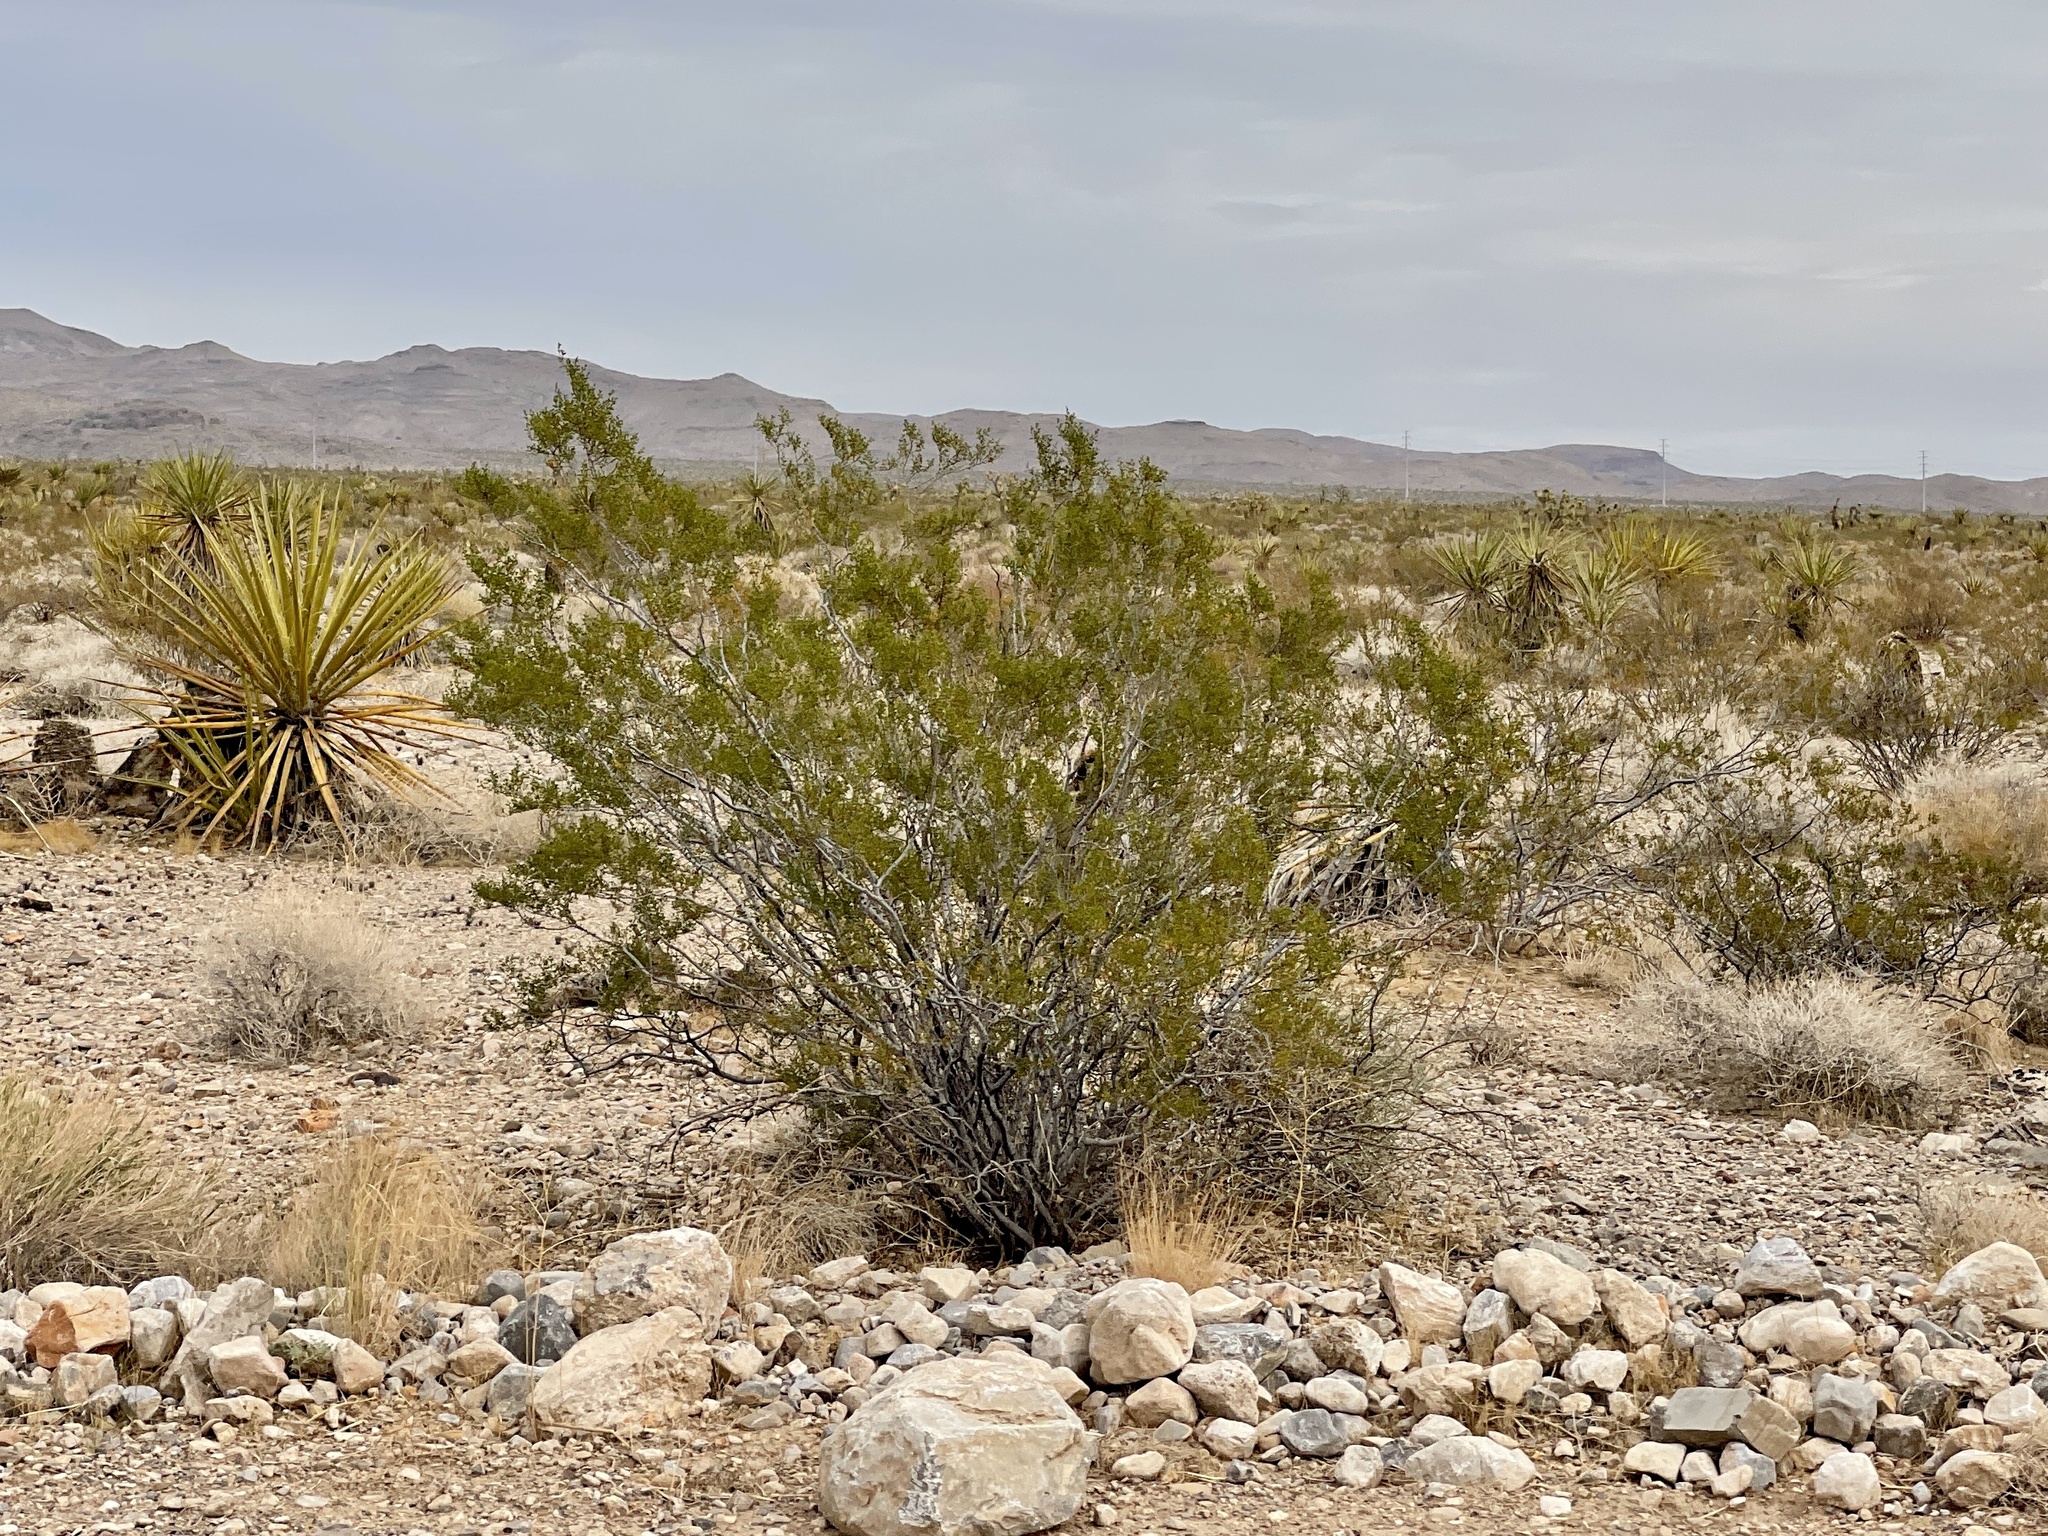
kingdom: Plantae
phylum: Tracheophyta
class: Magnoliopsida
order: Zygophyllales
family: Zygophyllaceae
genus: Larrea
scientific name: Larrea tridentata
